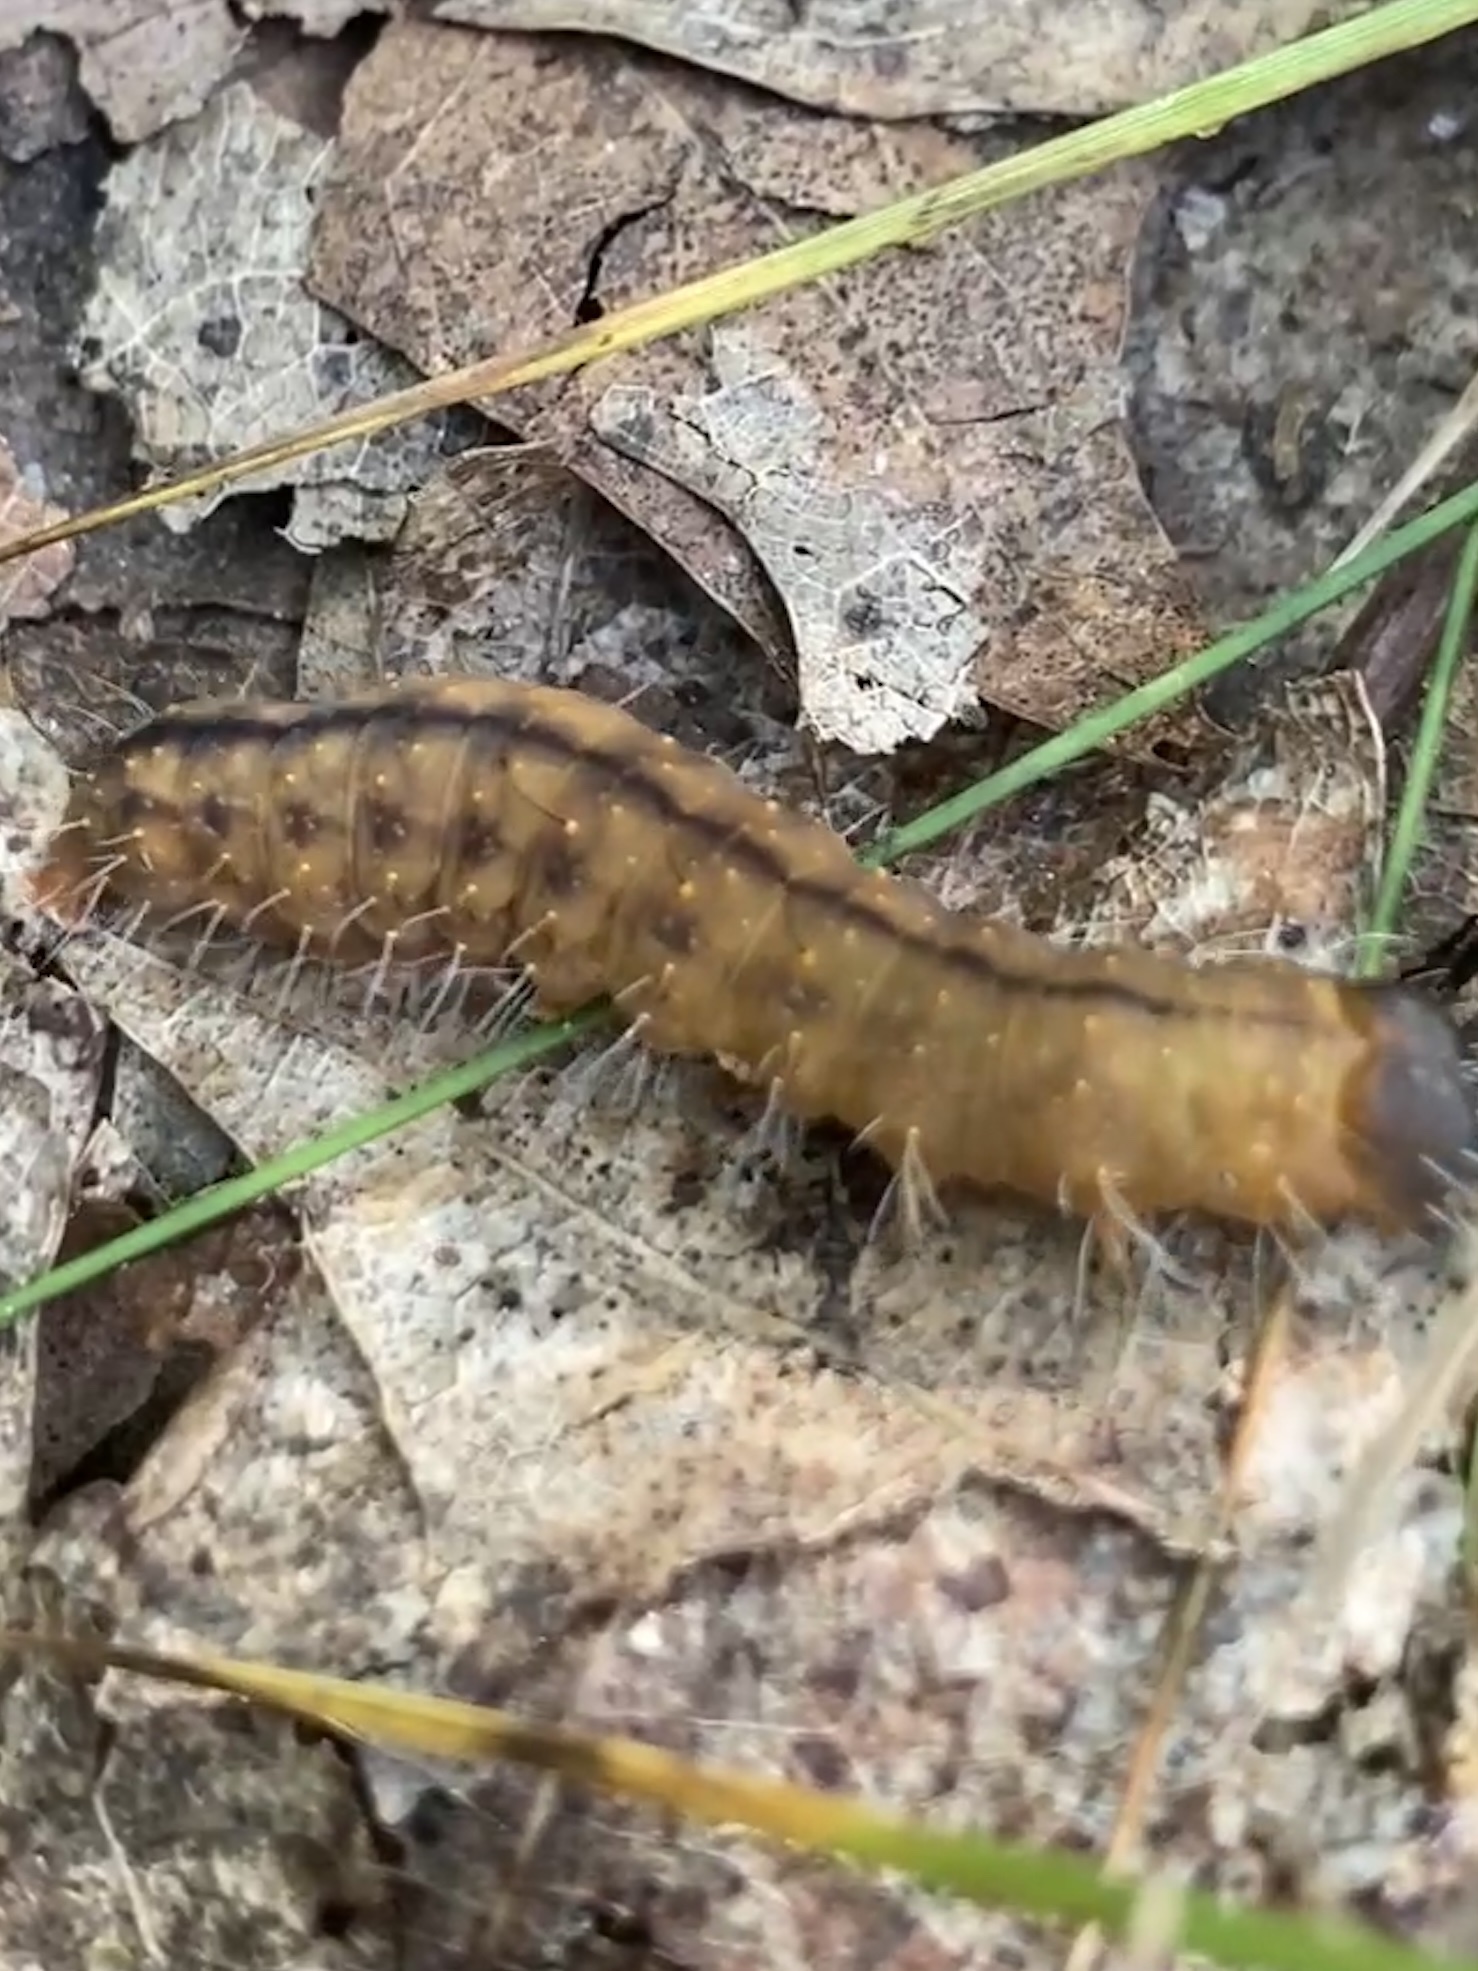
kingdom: Animalia
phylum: Arthropoda
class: Insecta
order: Lepidoptera
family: Noctuidae
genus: Acronicta
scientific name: Acronicta afflicta
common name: Afflicted dagger moth
